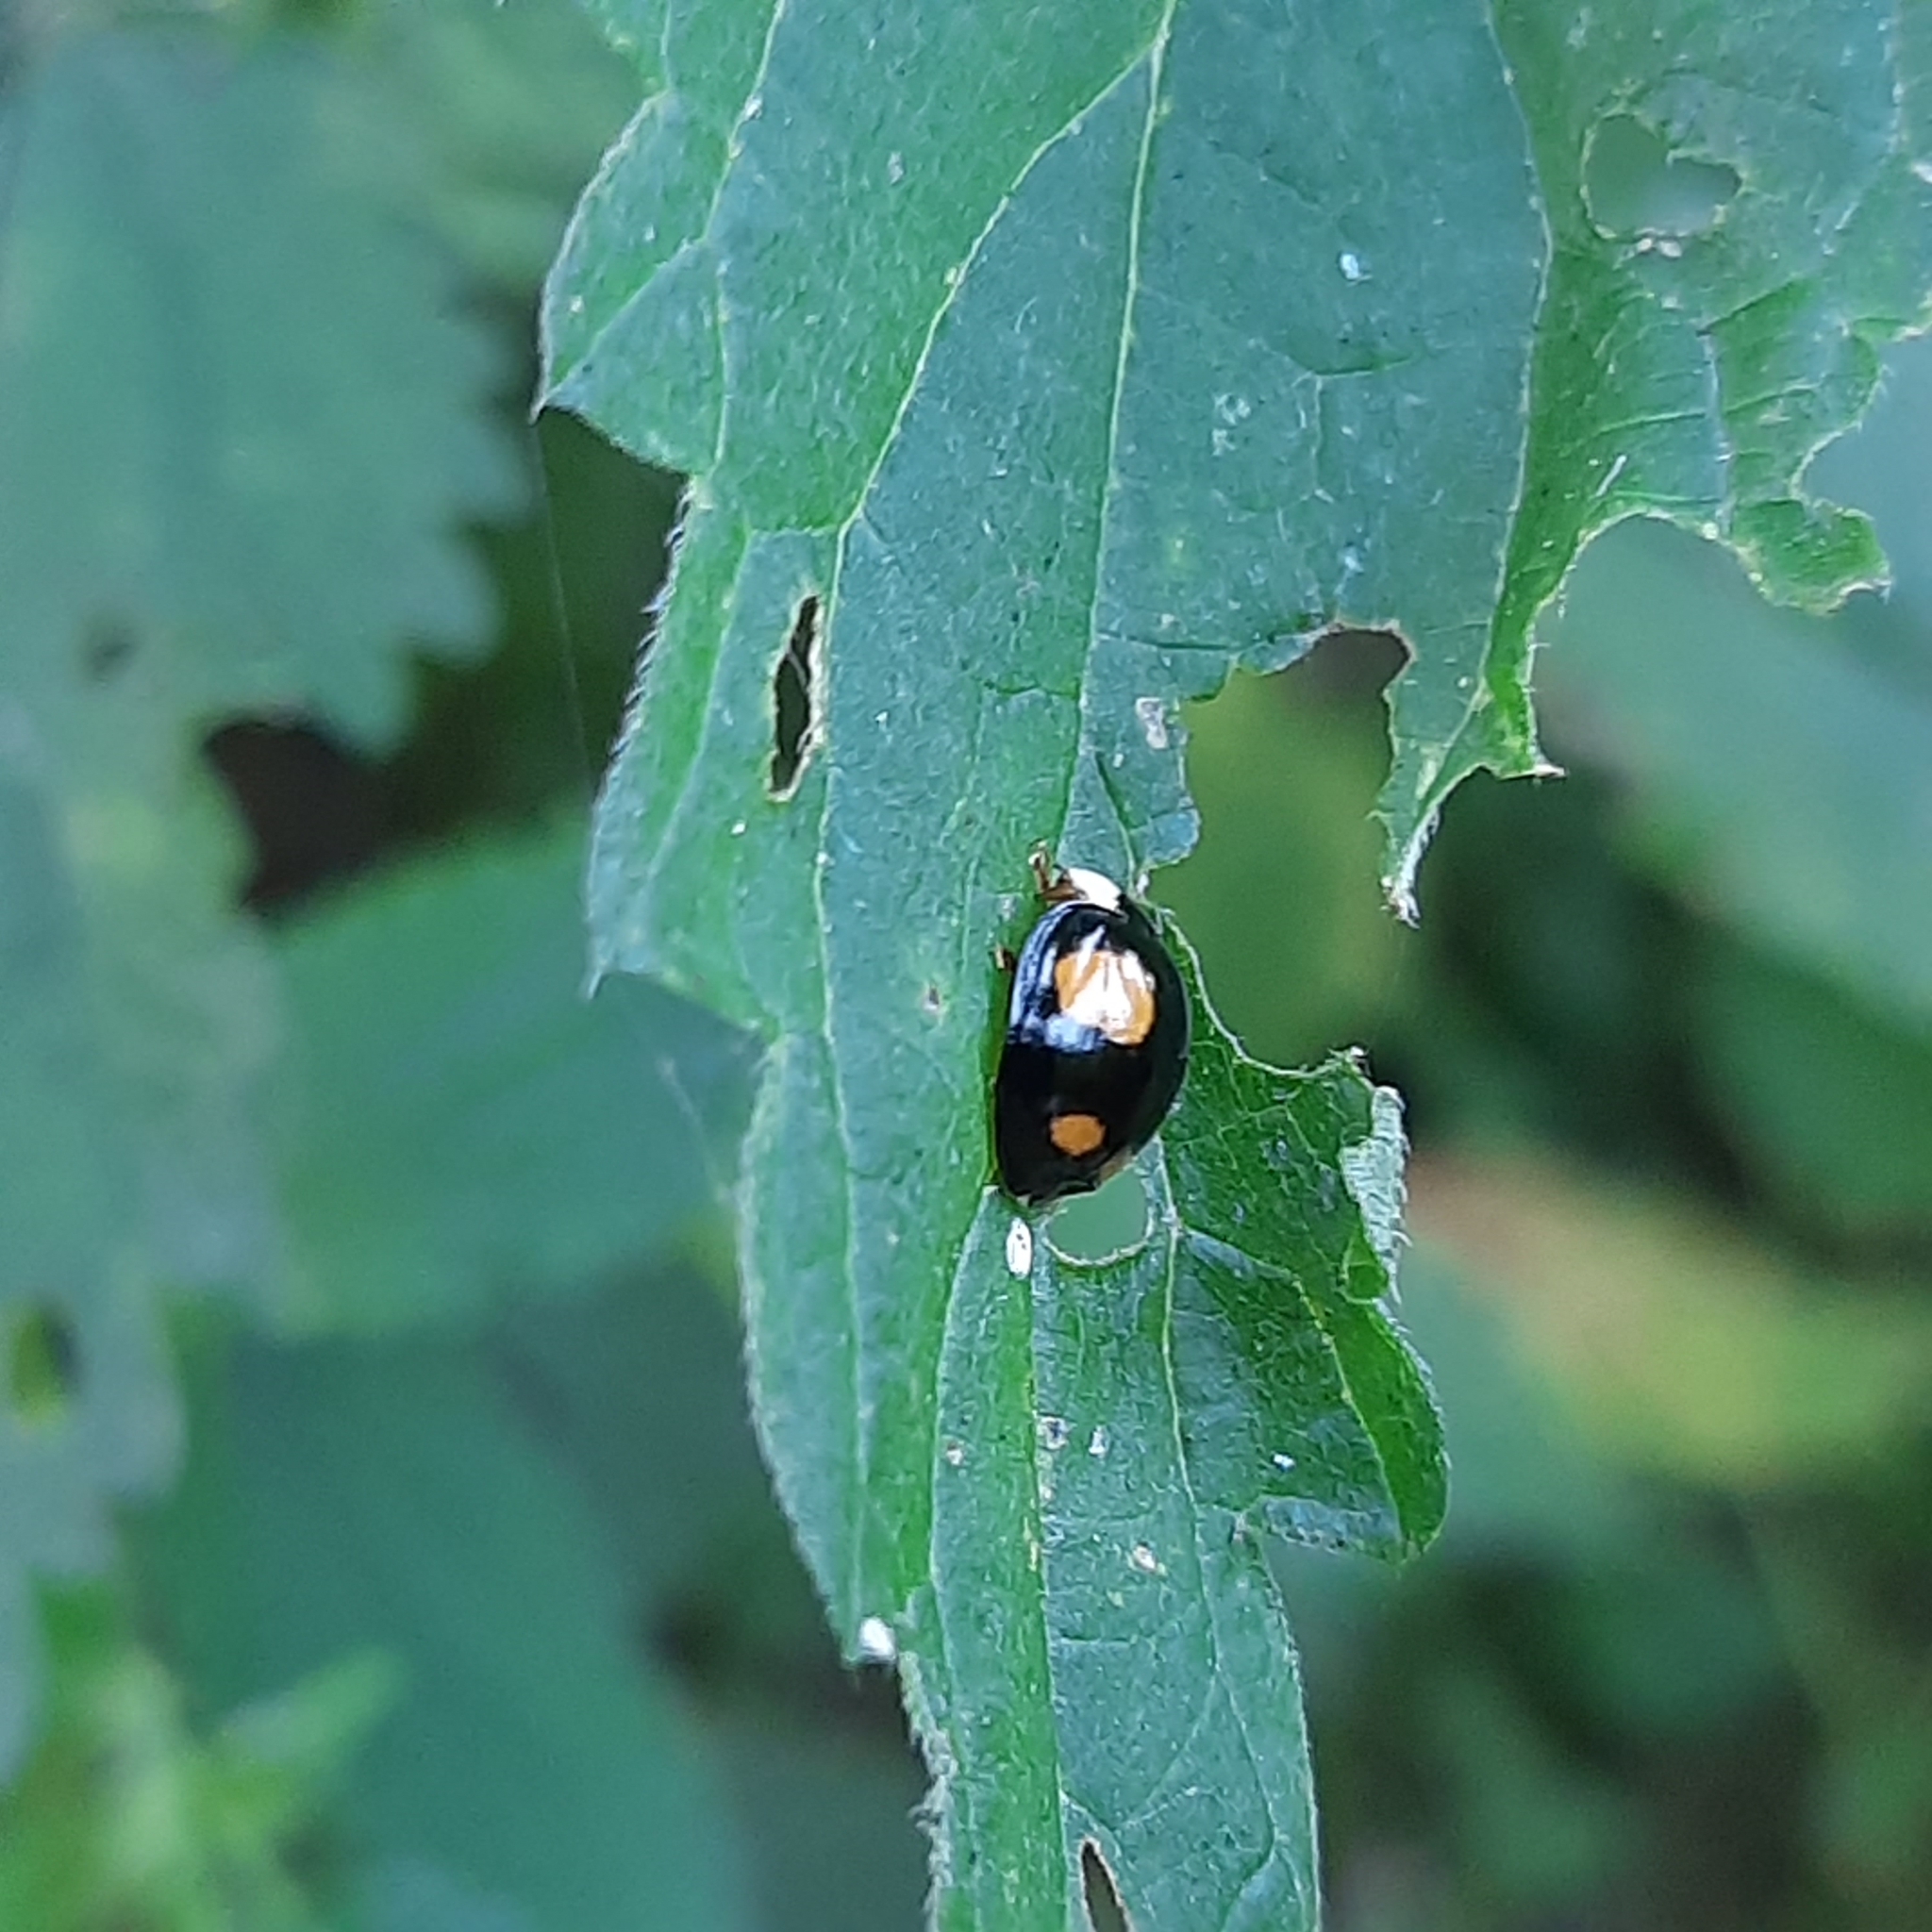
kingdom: Animalia
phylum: Arthropoda
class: Insecta
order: Coleoptera
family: Coccinellidae
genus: Harmonia
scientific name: Harmonia axyridis
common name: Harlequin ladybird
